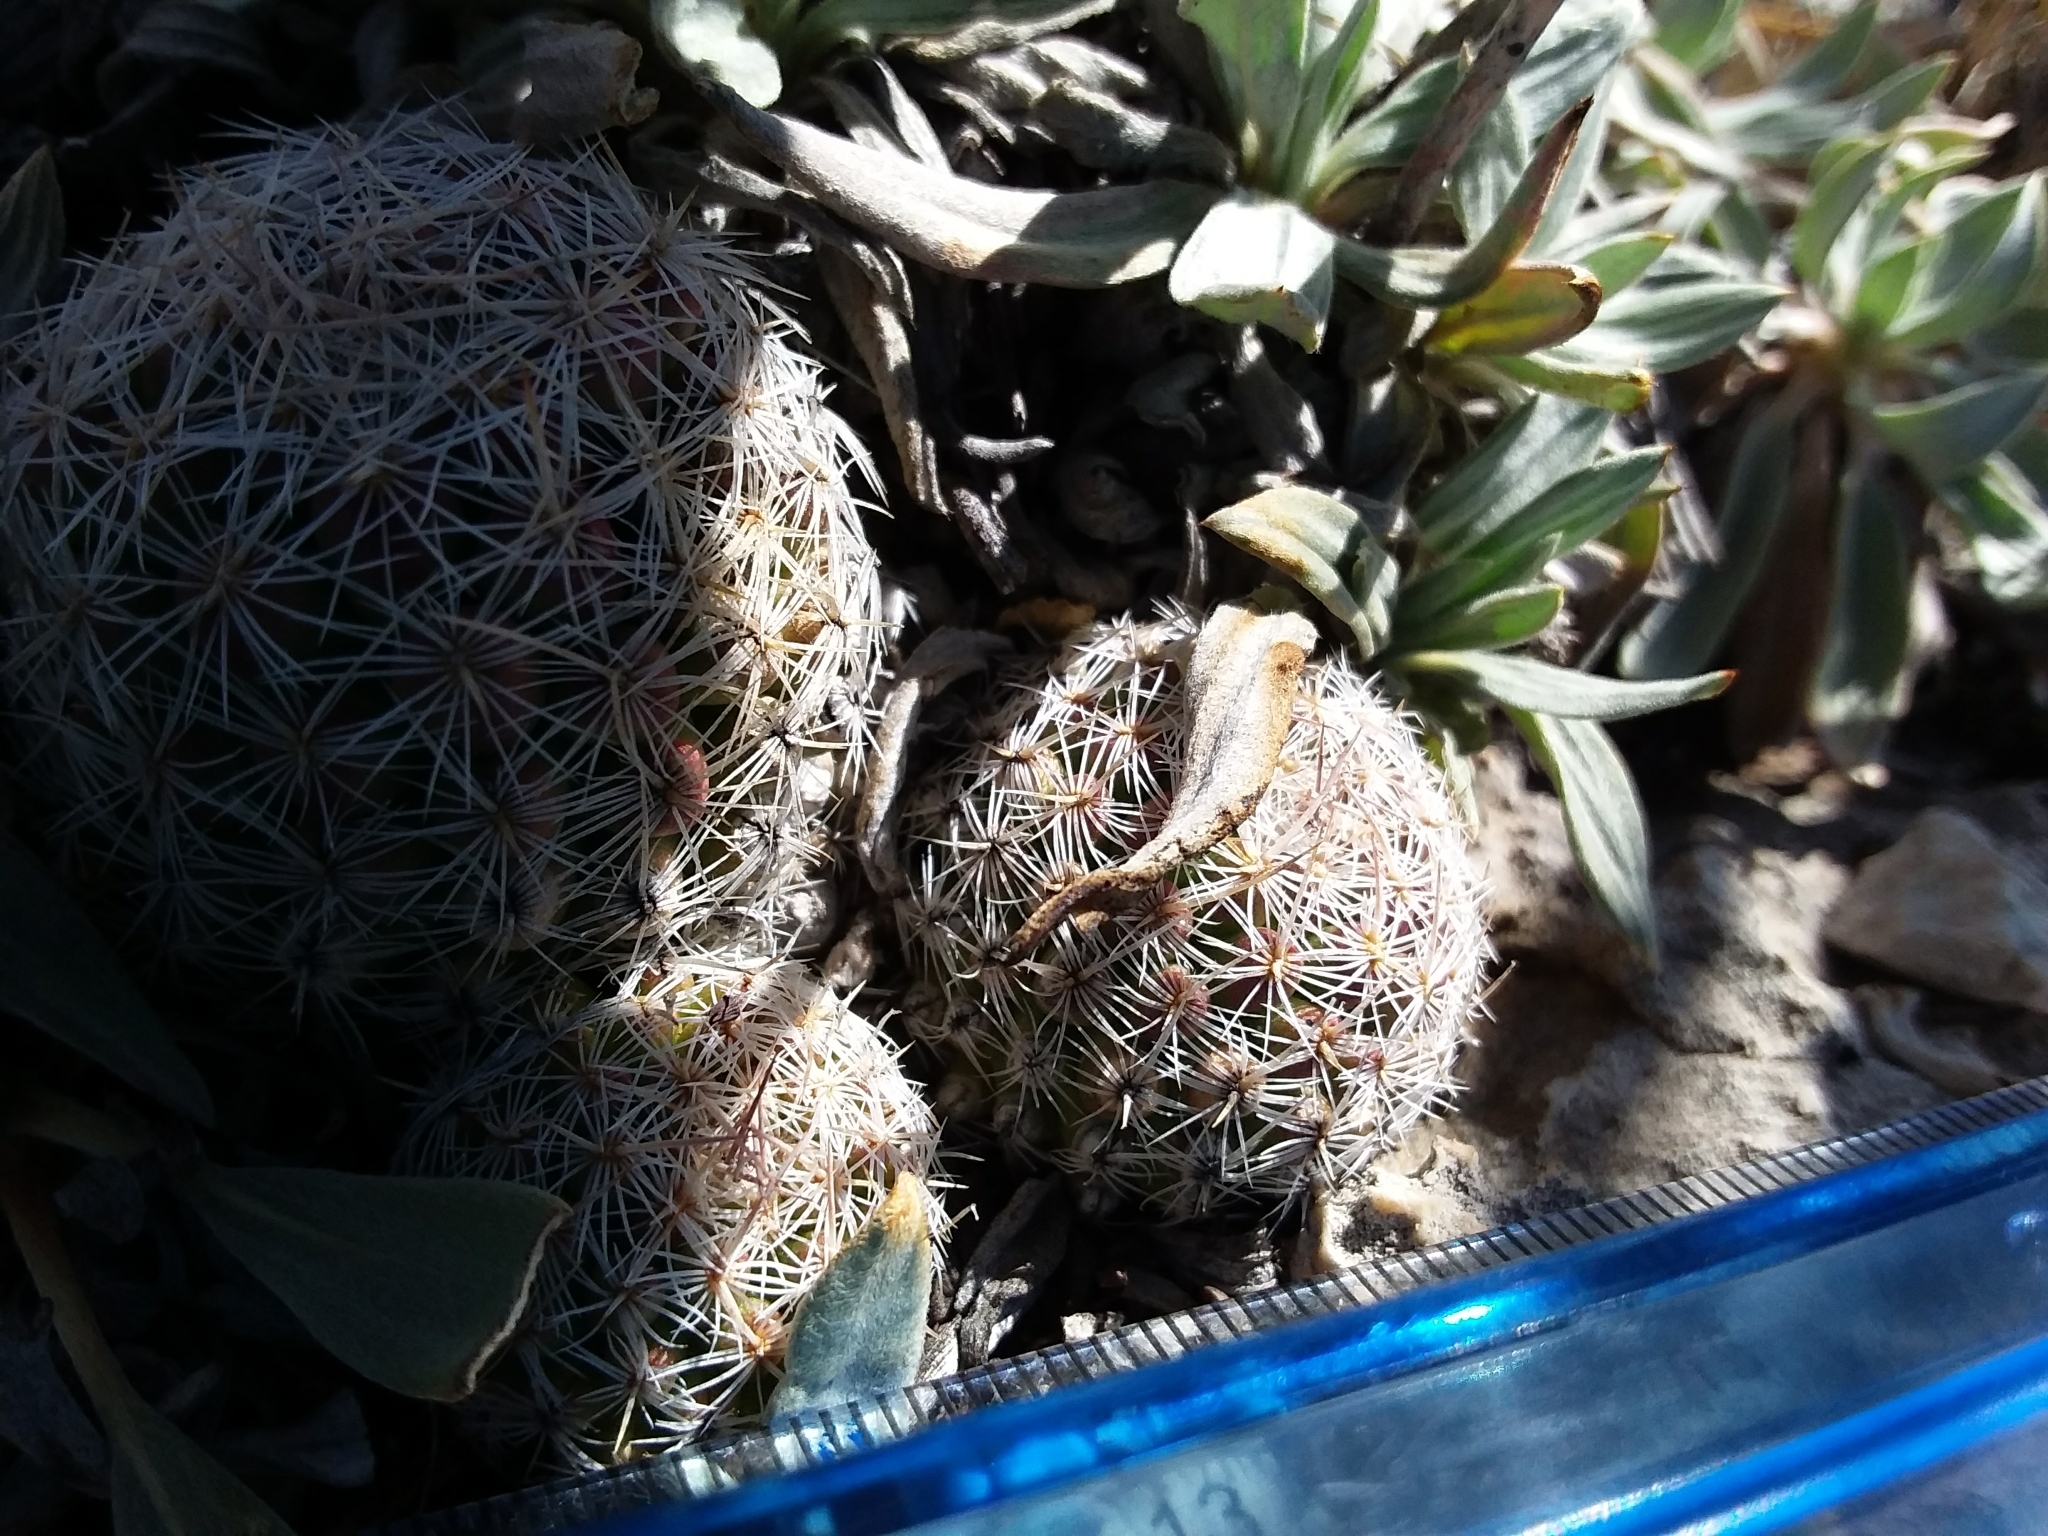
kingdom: Plantae
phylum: Tracheophyta
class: Magnoliopsida
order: Caryophyllales
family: Cactaceae
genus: Pelecyphora
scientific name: Pelecyphora vivipara
